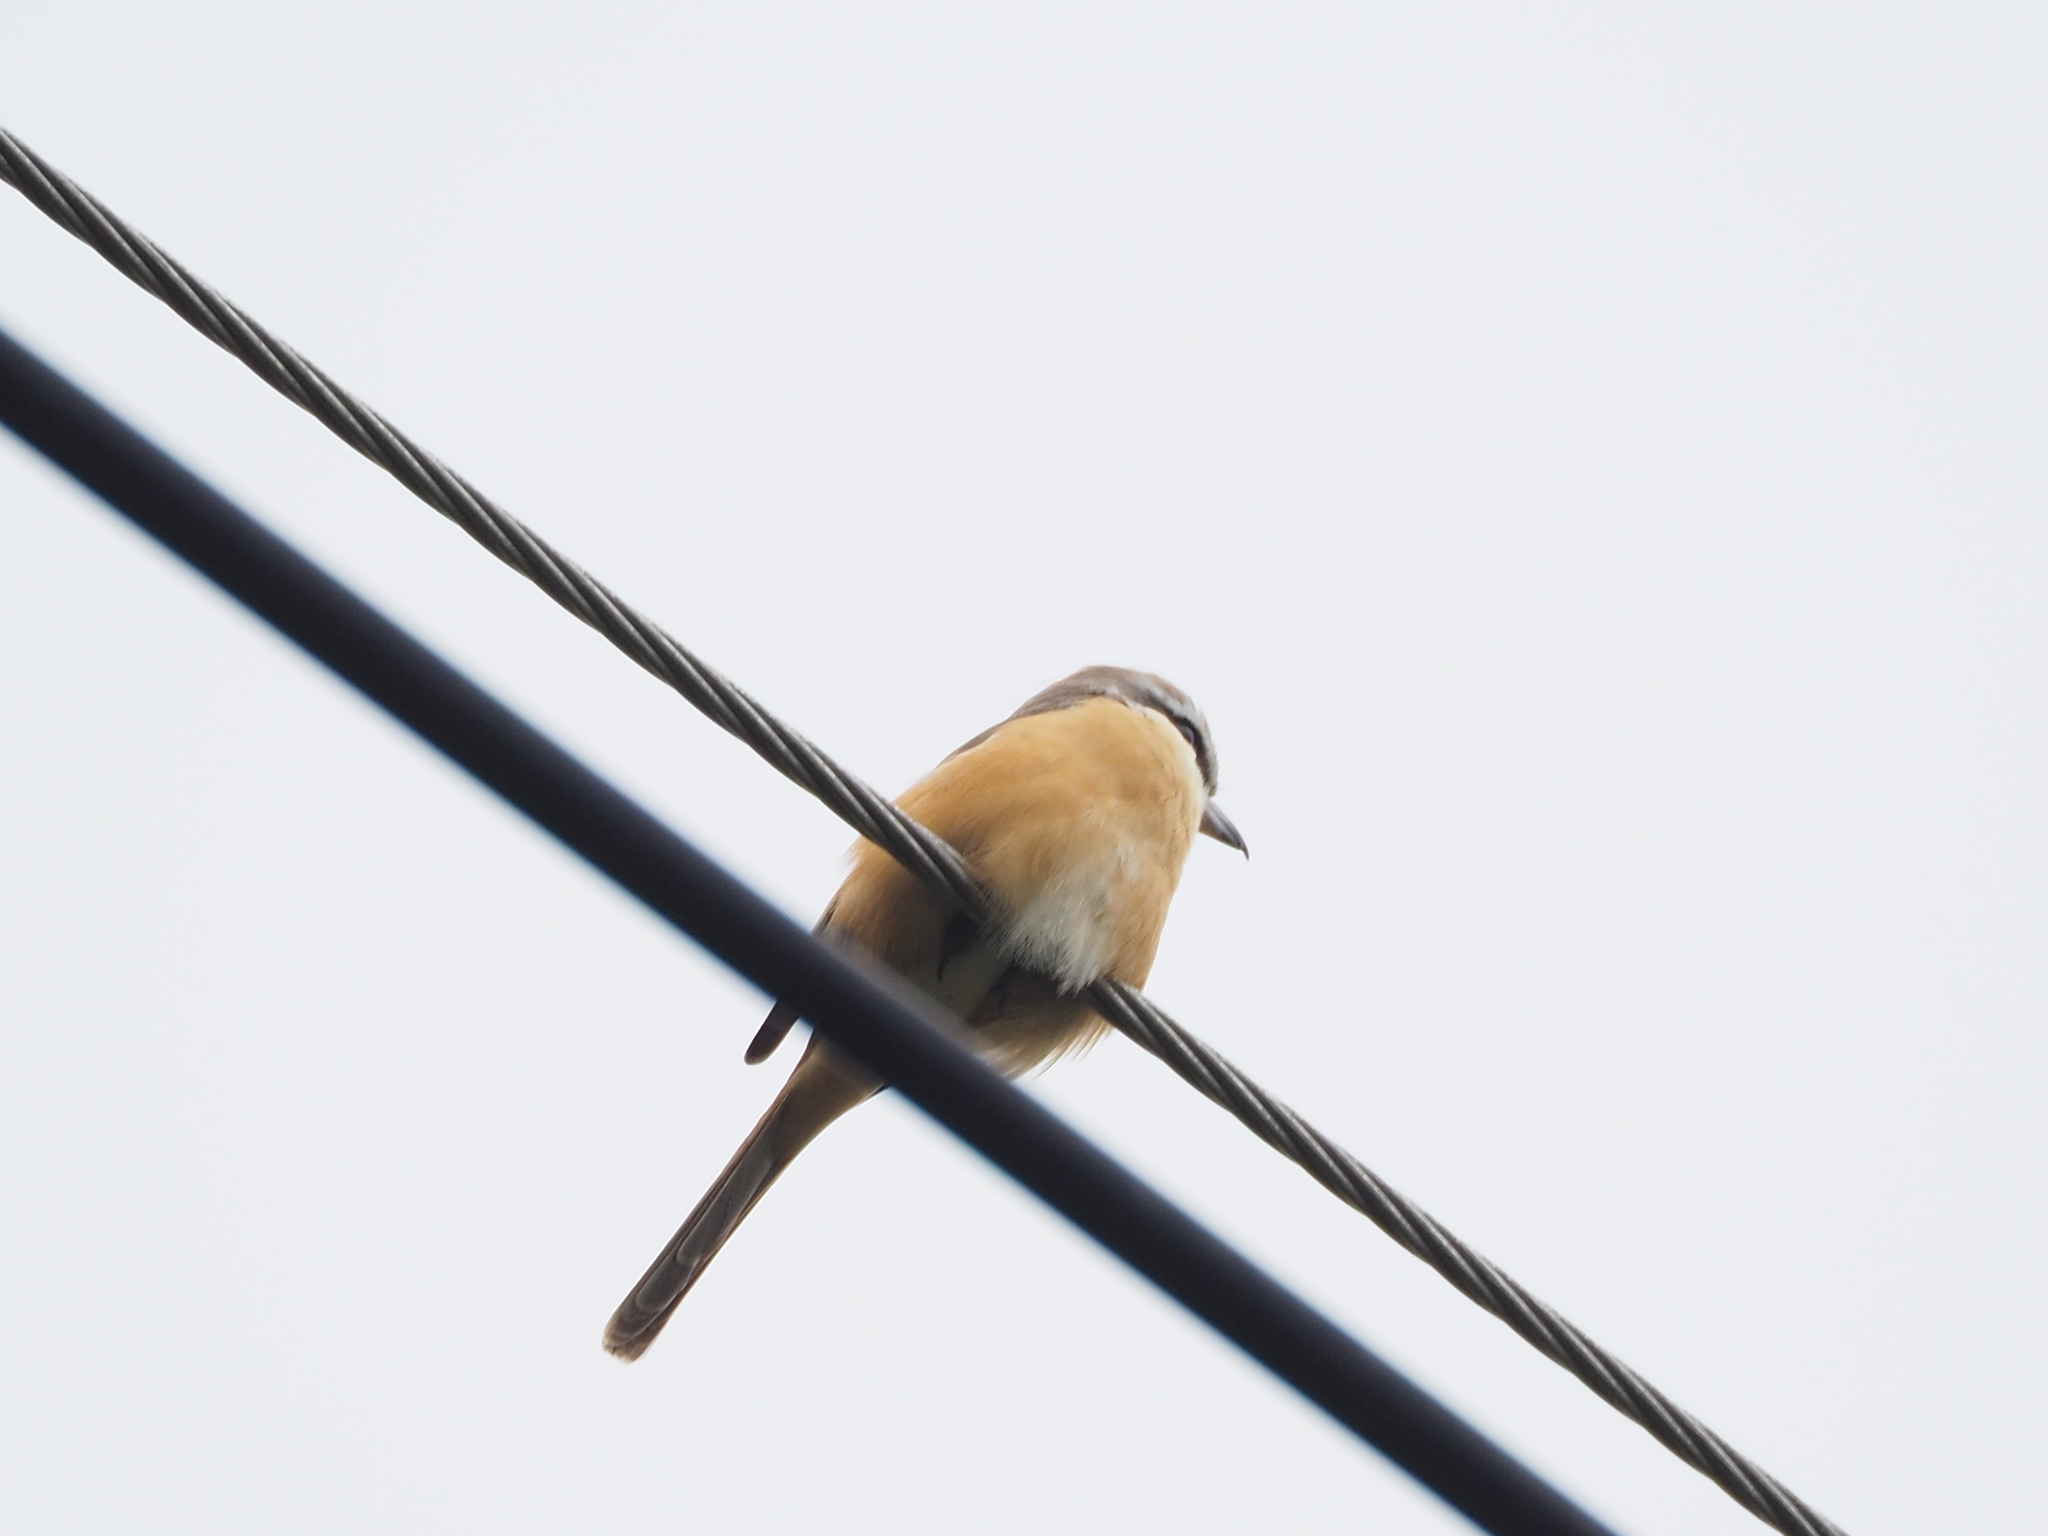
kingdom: Animalia
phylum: Chordata
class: Aves
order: Passeriformes
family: Laniidae
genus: Lanius
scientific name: Lanius cristatus
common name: Brown shrike
